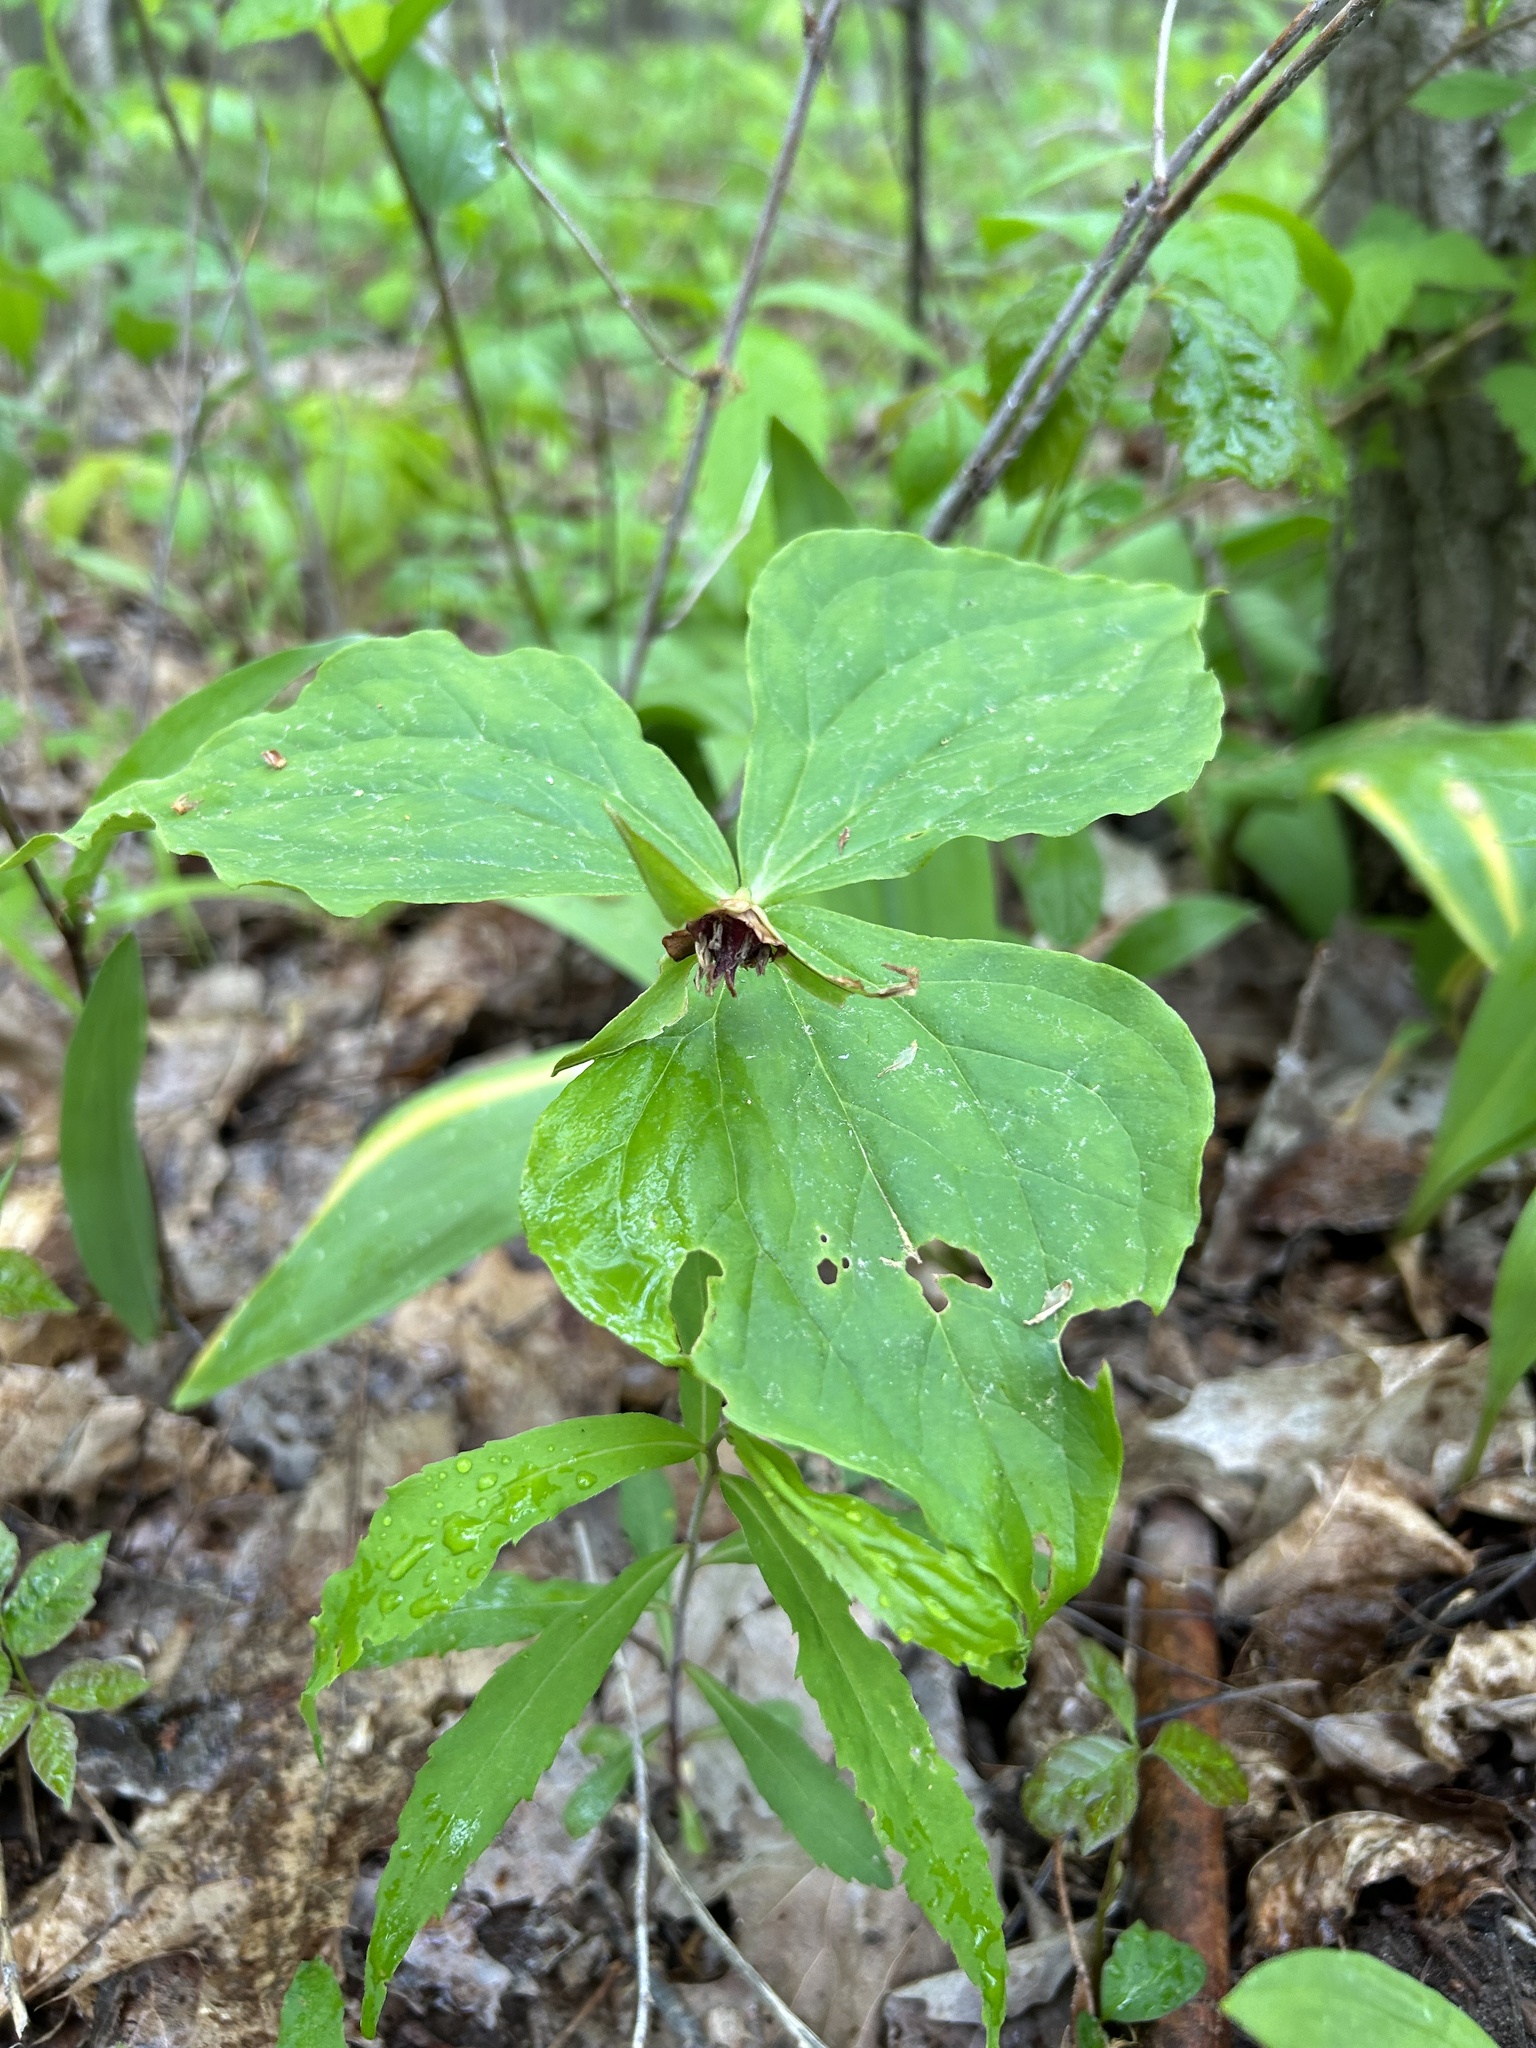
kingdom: Plantae
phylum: Tracheophyta
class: Liliopsida
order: Liliales
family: Melanthiaceae
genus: Trillium
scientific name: Trillium erectum
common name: Purple trillium
